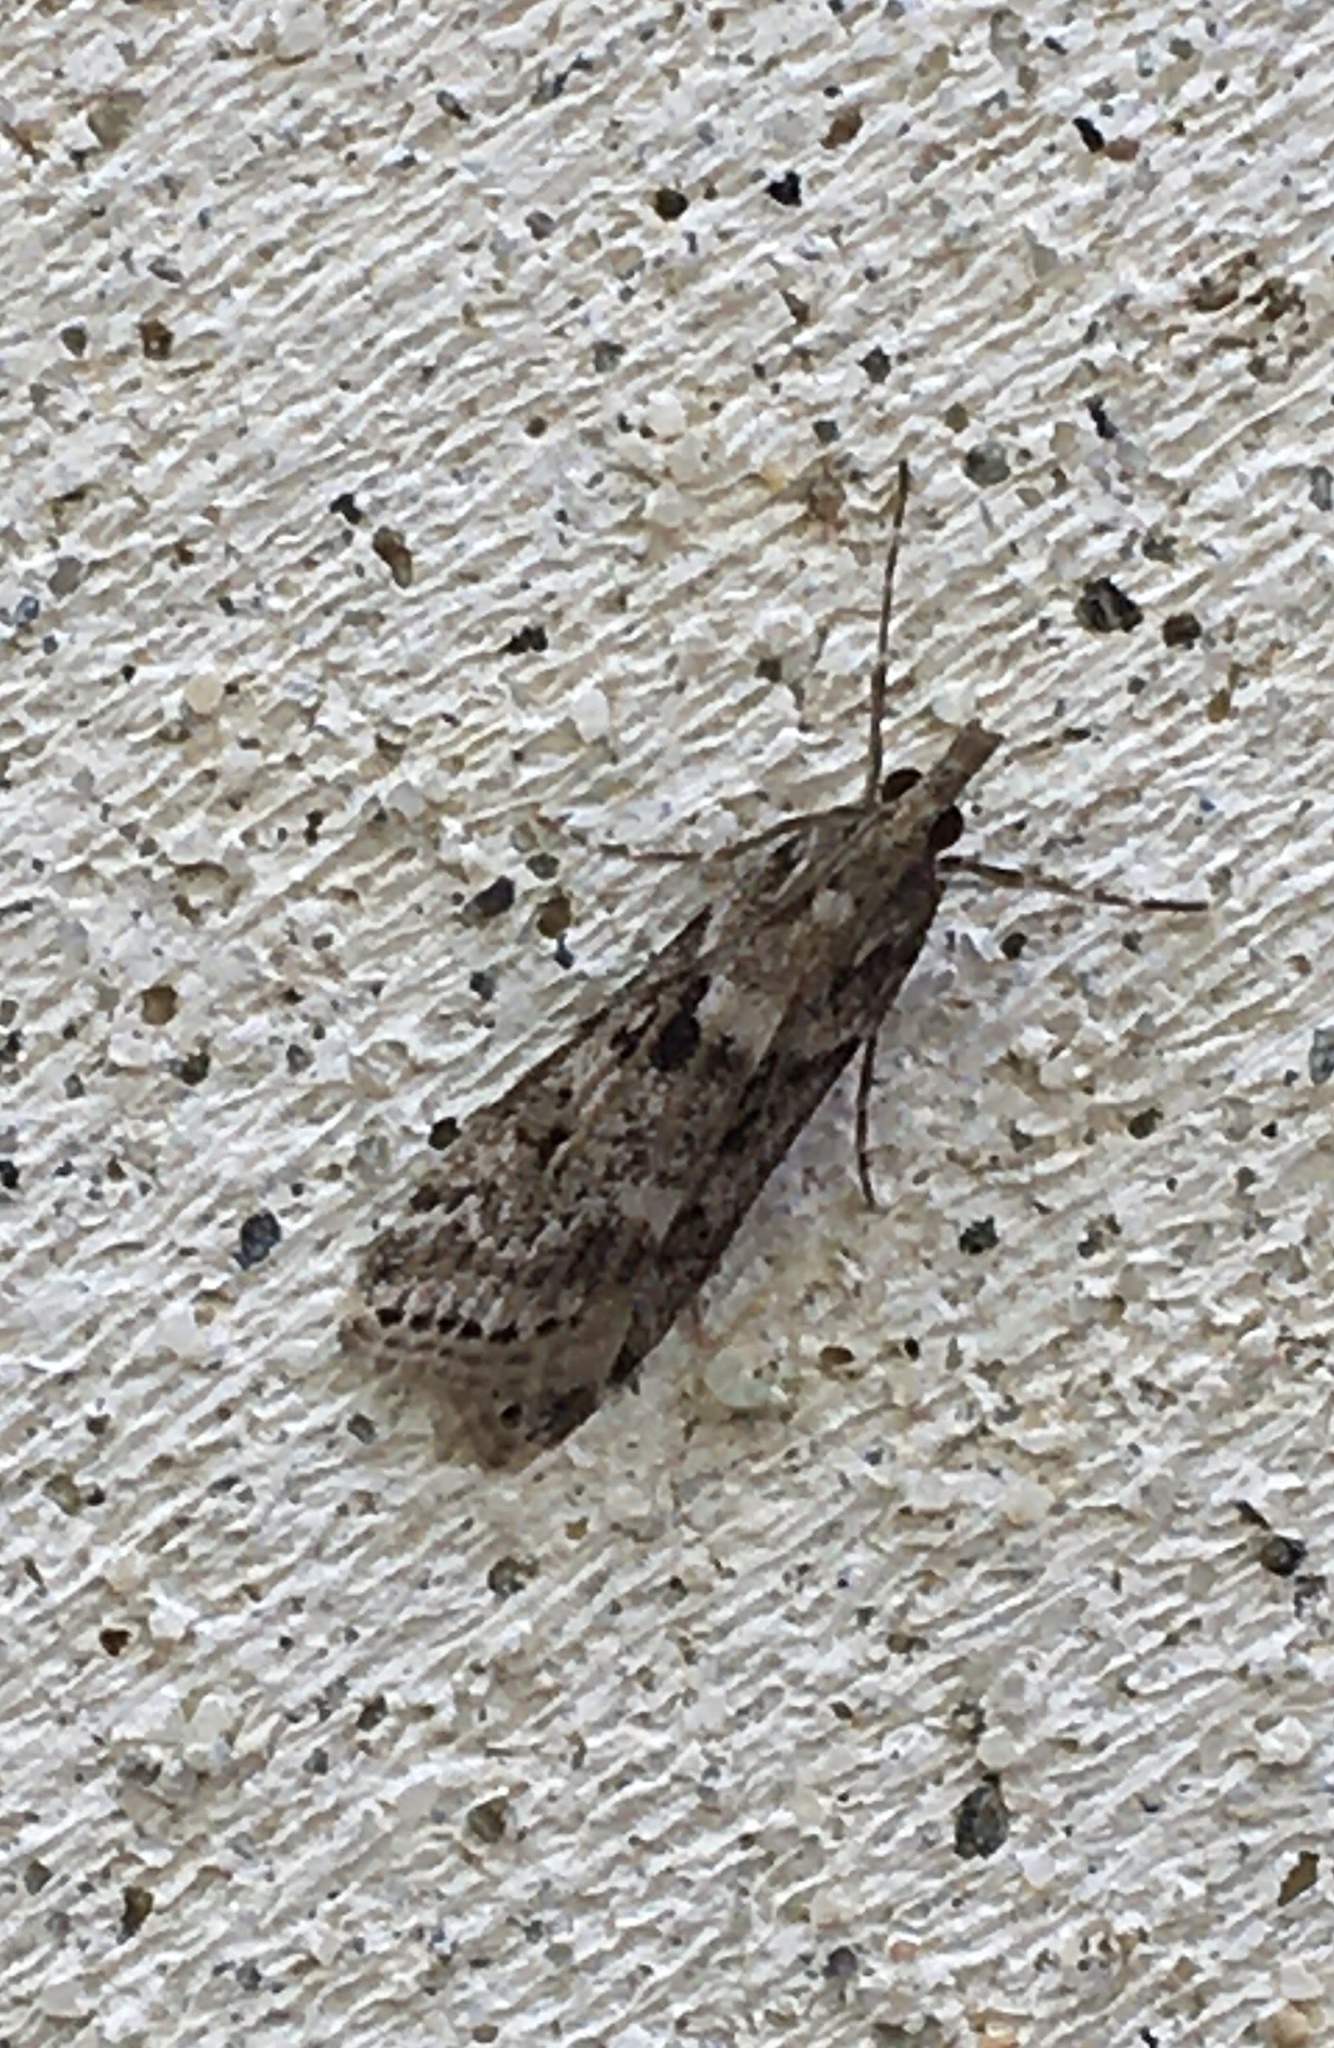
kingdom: Animalia
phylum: Arthropoda
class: Insecta
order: Lepidoptera
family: Crambidae
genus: Eudonia
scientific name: Eudonia angustea
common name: Narrow-winged grey
